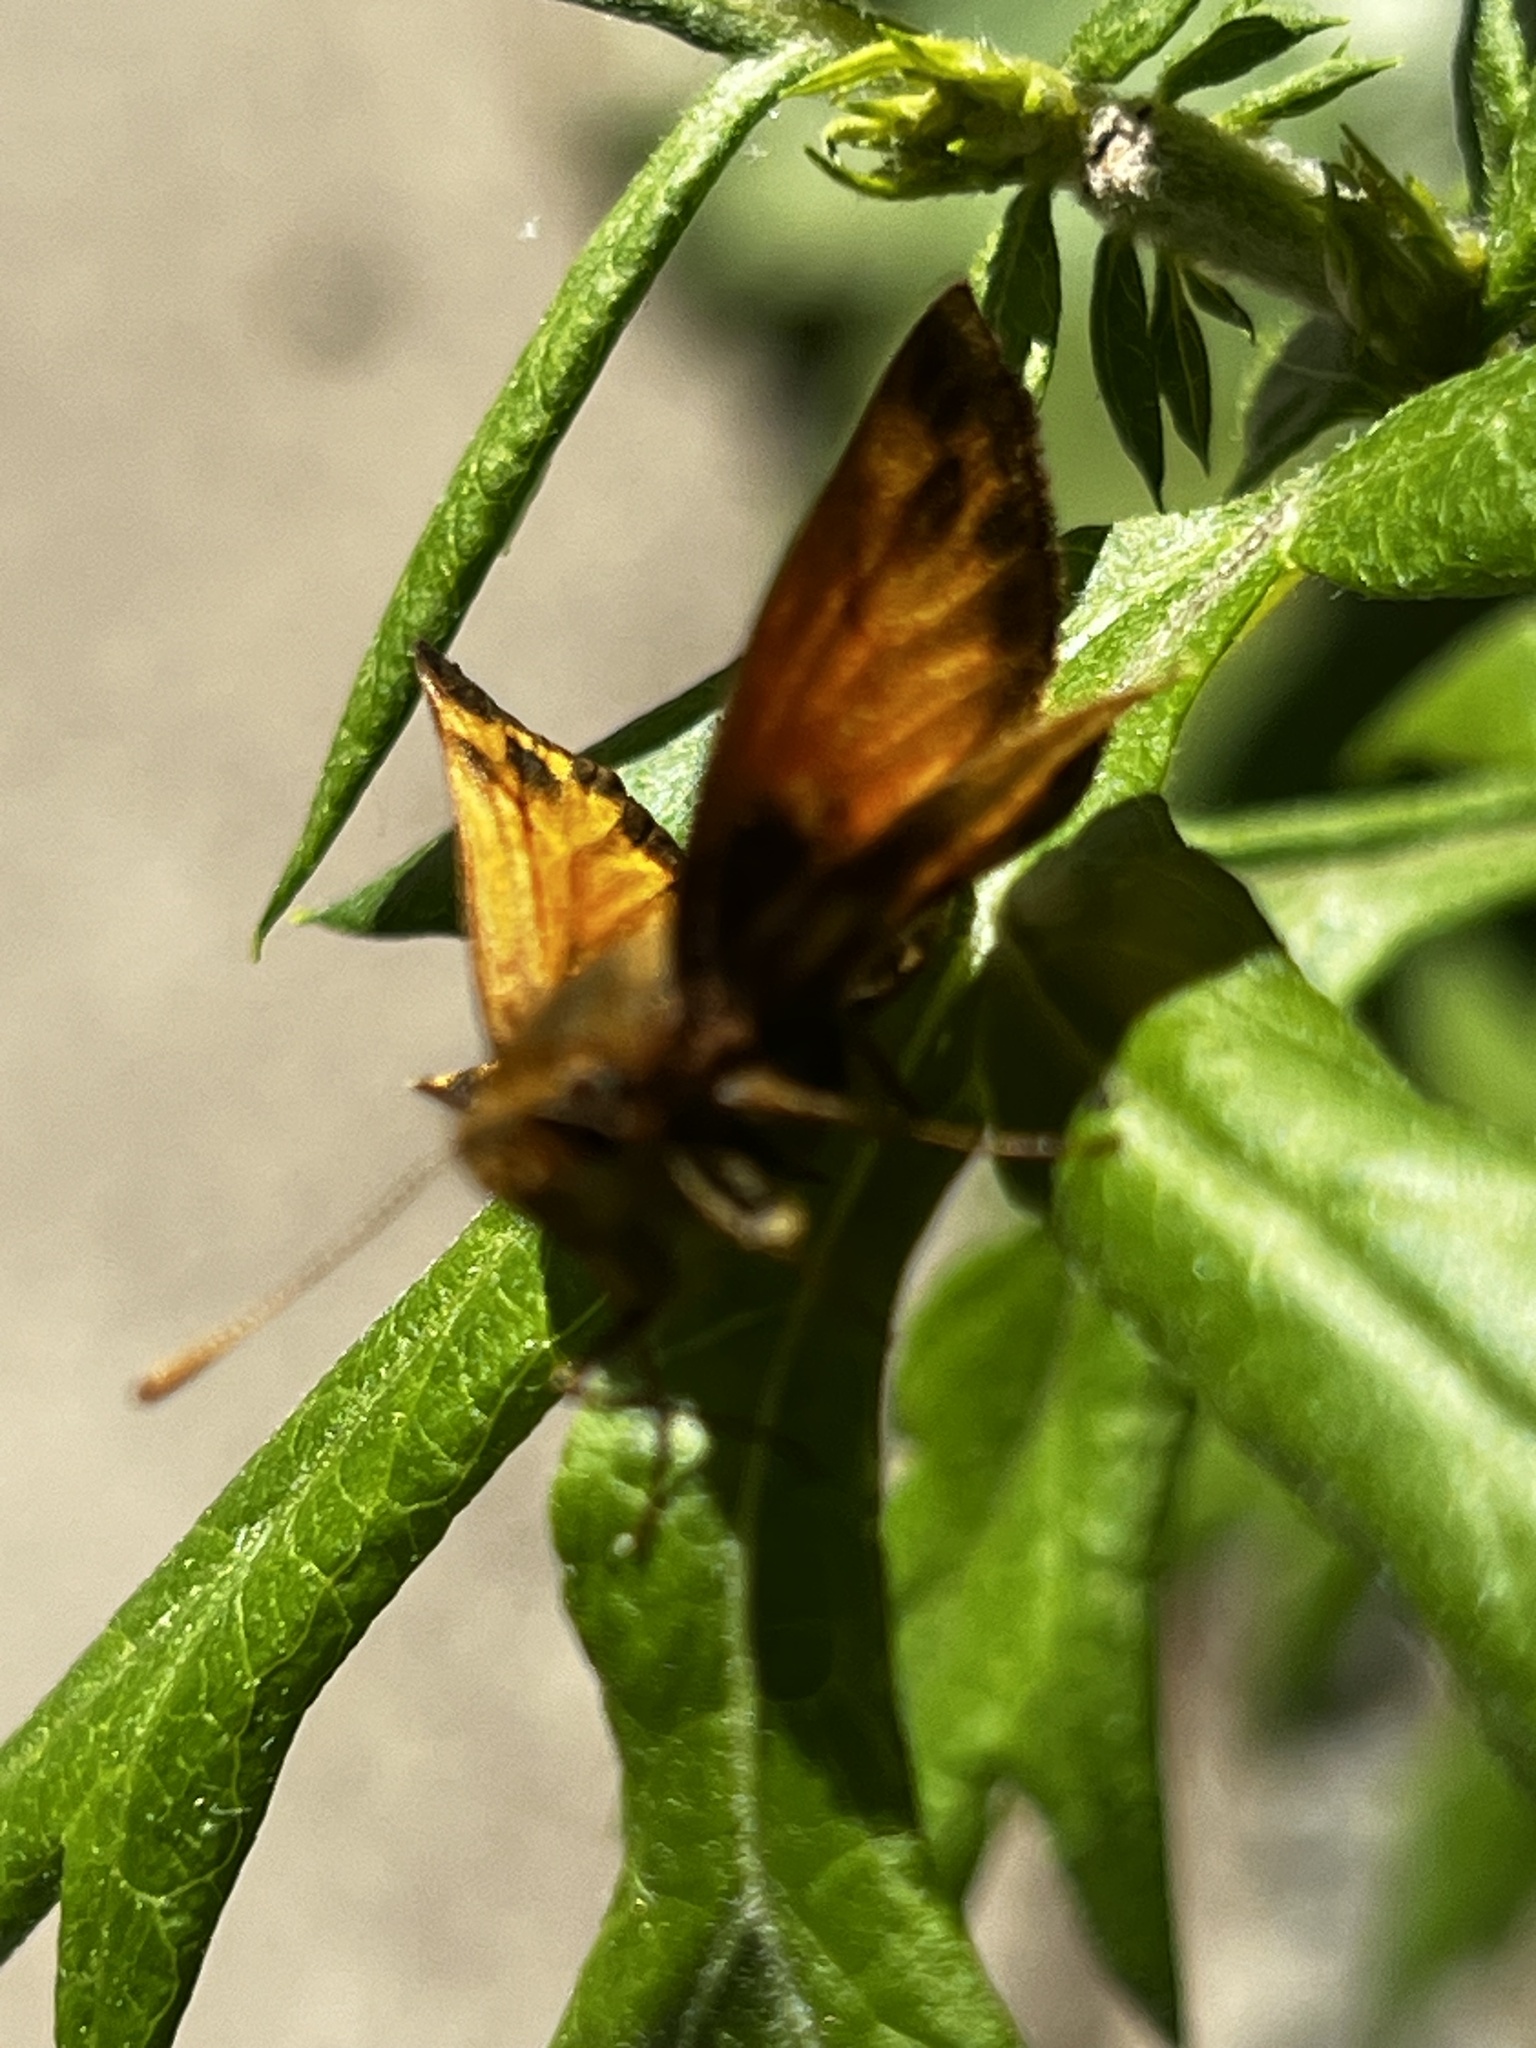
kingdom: Animalia
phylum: Arthropoda
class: Insecta
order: Lepidoptera
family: Hesperiidae
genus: Lon
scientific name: Lon zabulon
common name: Zabulon skipper
